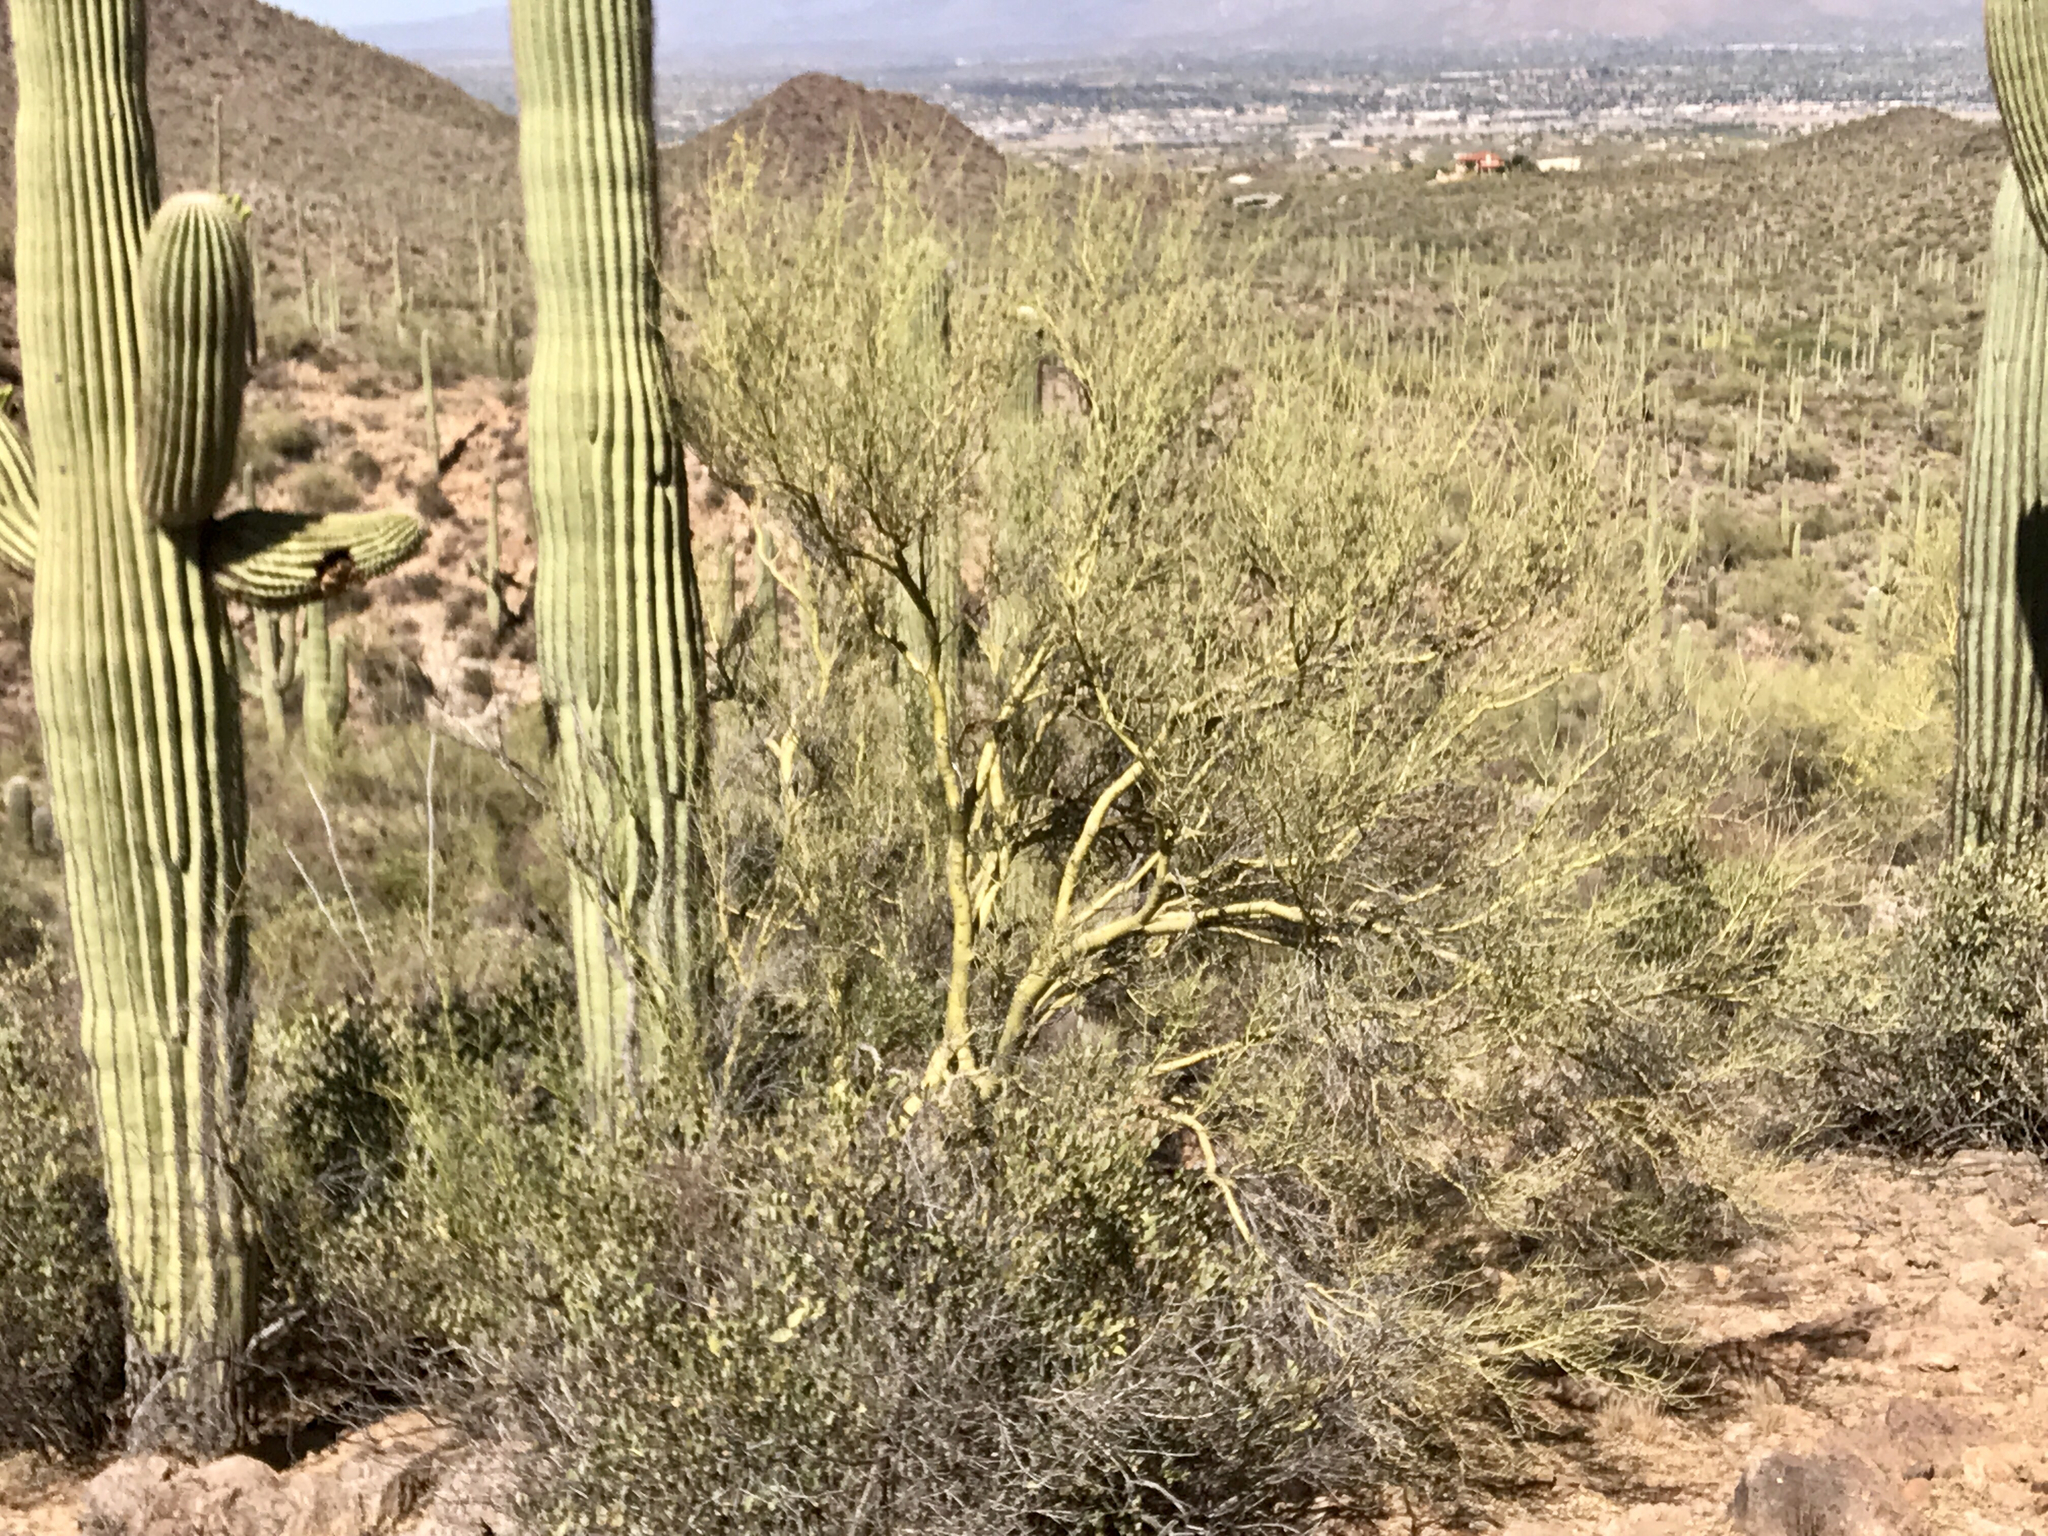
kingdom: Plantae
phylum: Tracheophyta
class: Magnoliopsida
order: Fabales
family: Fabaceae
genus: Parkinsonia
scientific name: Parkinsonia microphylla
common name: Yellow paloverde
